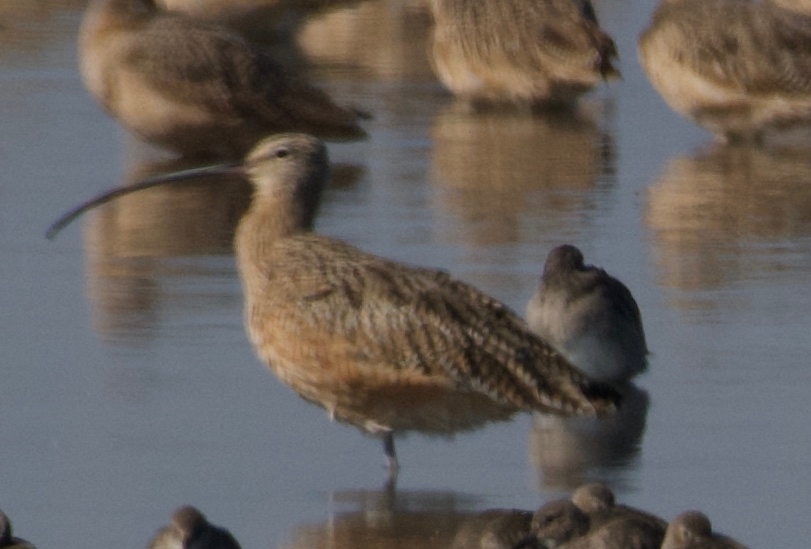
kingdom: Animalia
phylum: Chordata
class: Aves
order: Charadriiformes
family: Scolopacidae
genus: Numenius
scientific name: Numenius americanus
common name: Long-billed curlew
